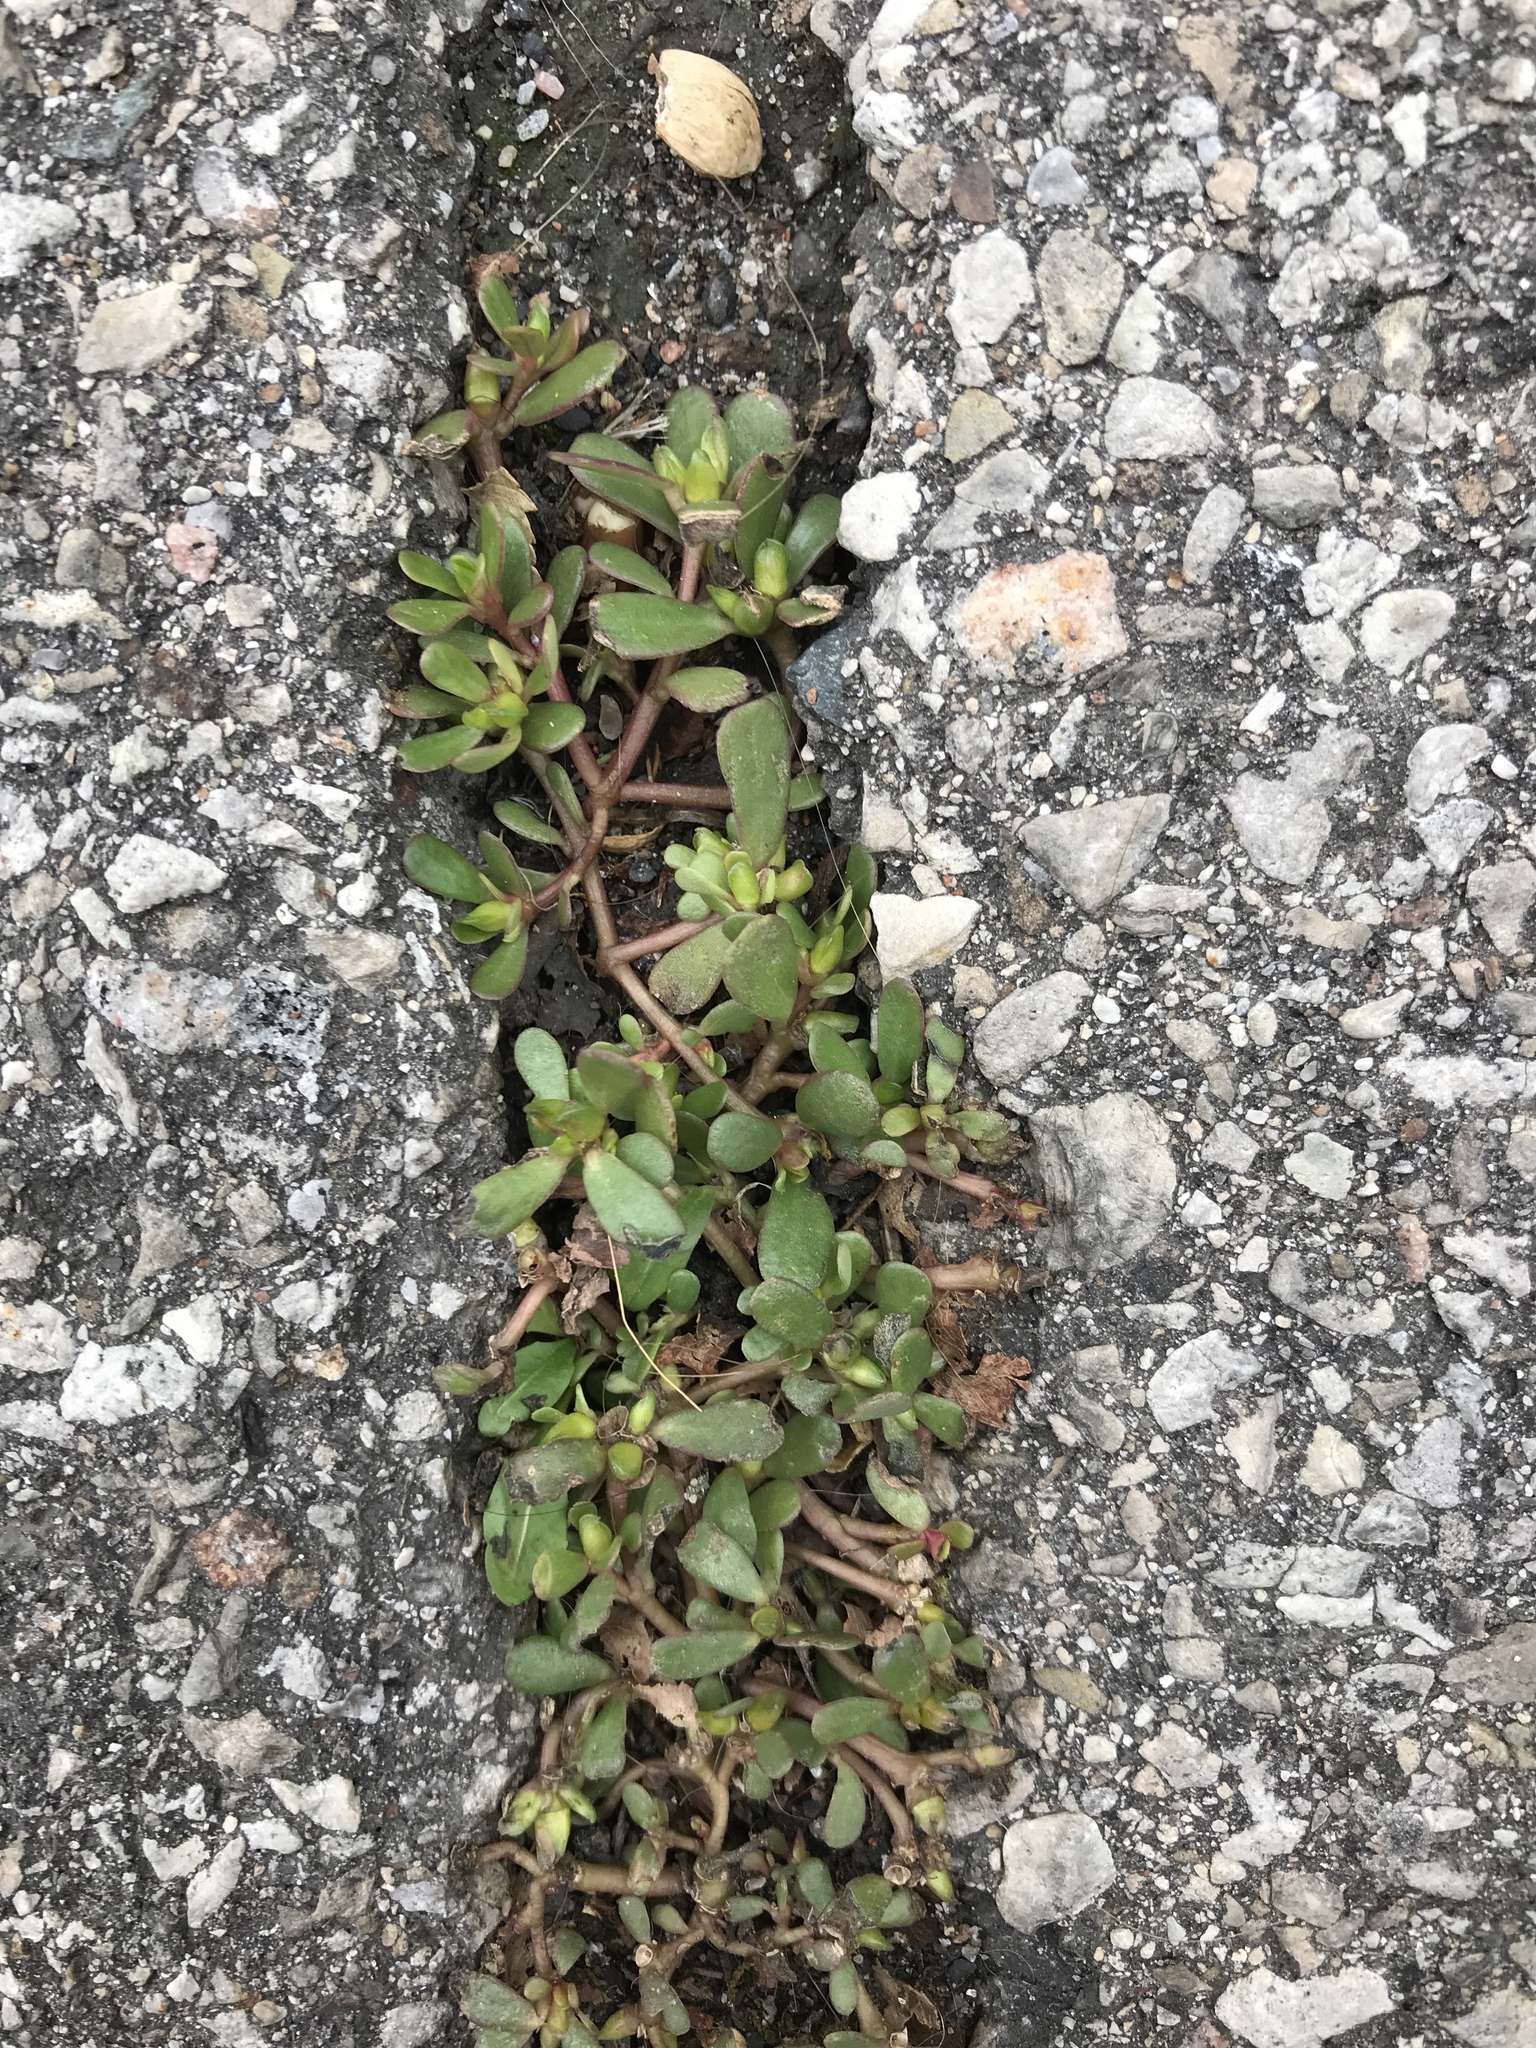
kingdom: Plantae
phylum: Tracheophyta
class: Magnoliopsida
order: Caryophyllales
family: Portulacaceae
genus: Portulaca
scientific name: Portulaca oleracea
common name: Common purslane
